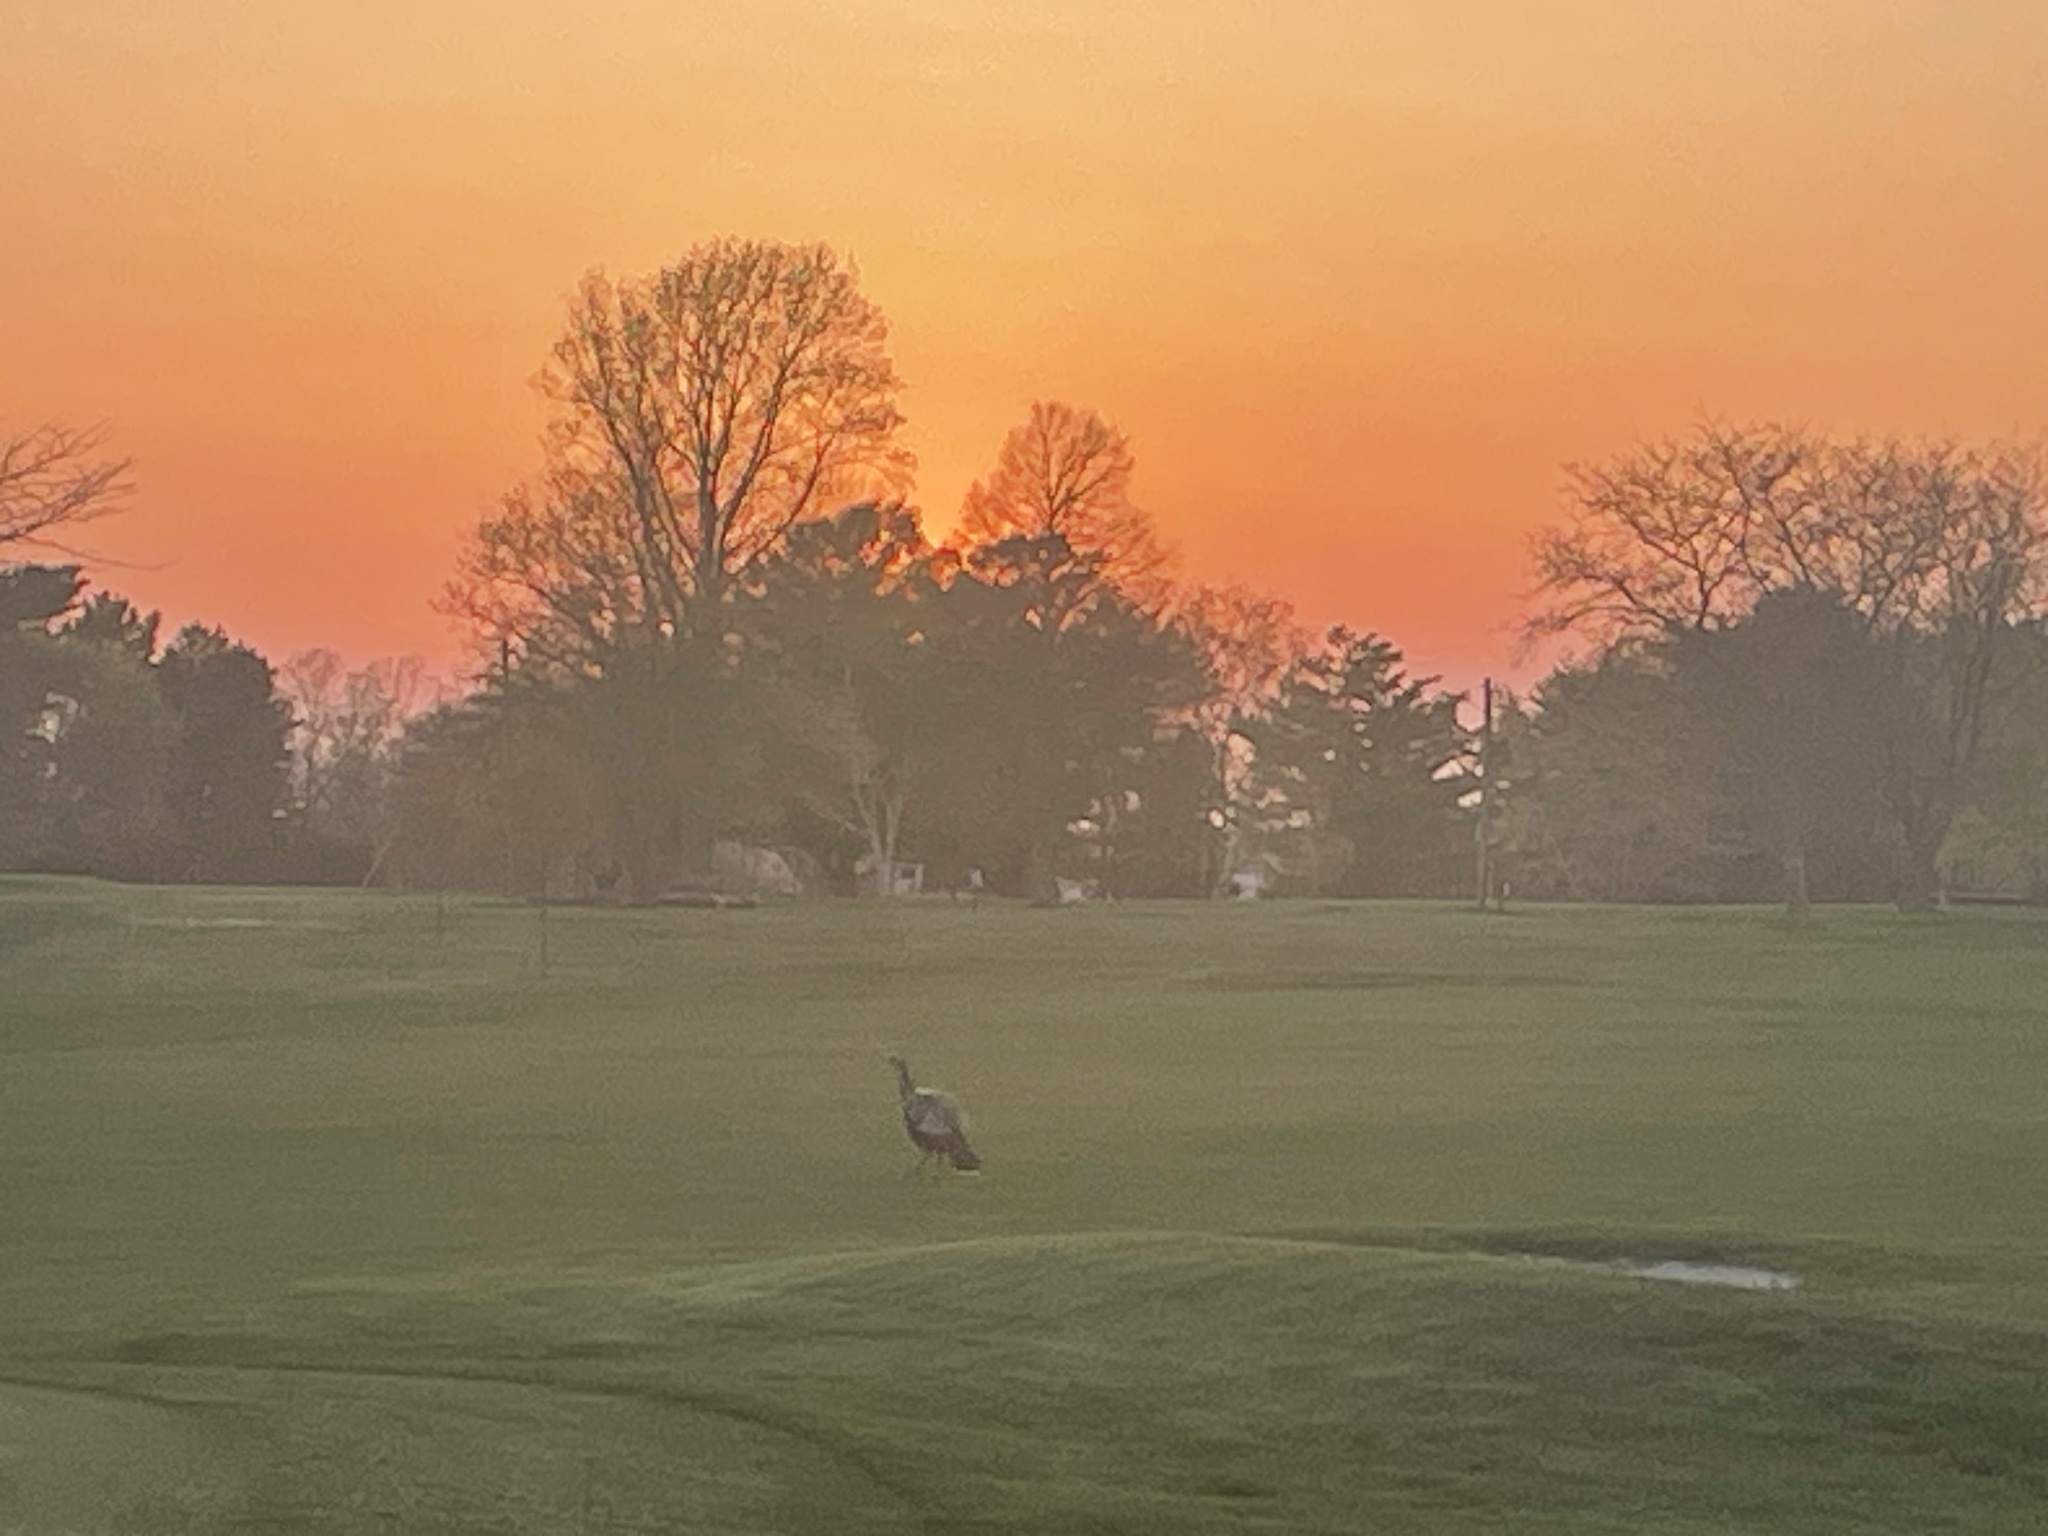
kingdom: Animalia
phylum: Chordata
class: Aves
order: Galliformes
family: Phasianidae
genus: Meleagris
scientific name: Meleagris gallopavo
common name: Wild turkey
